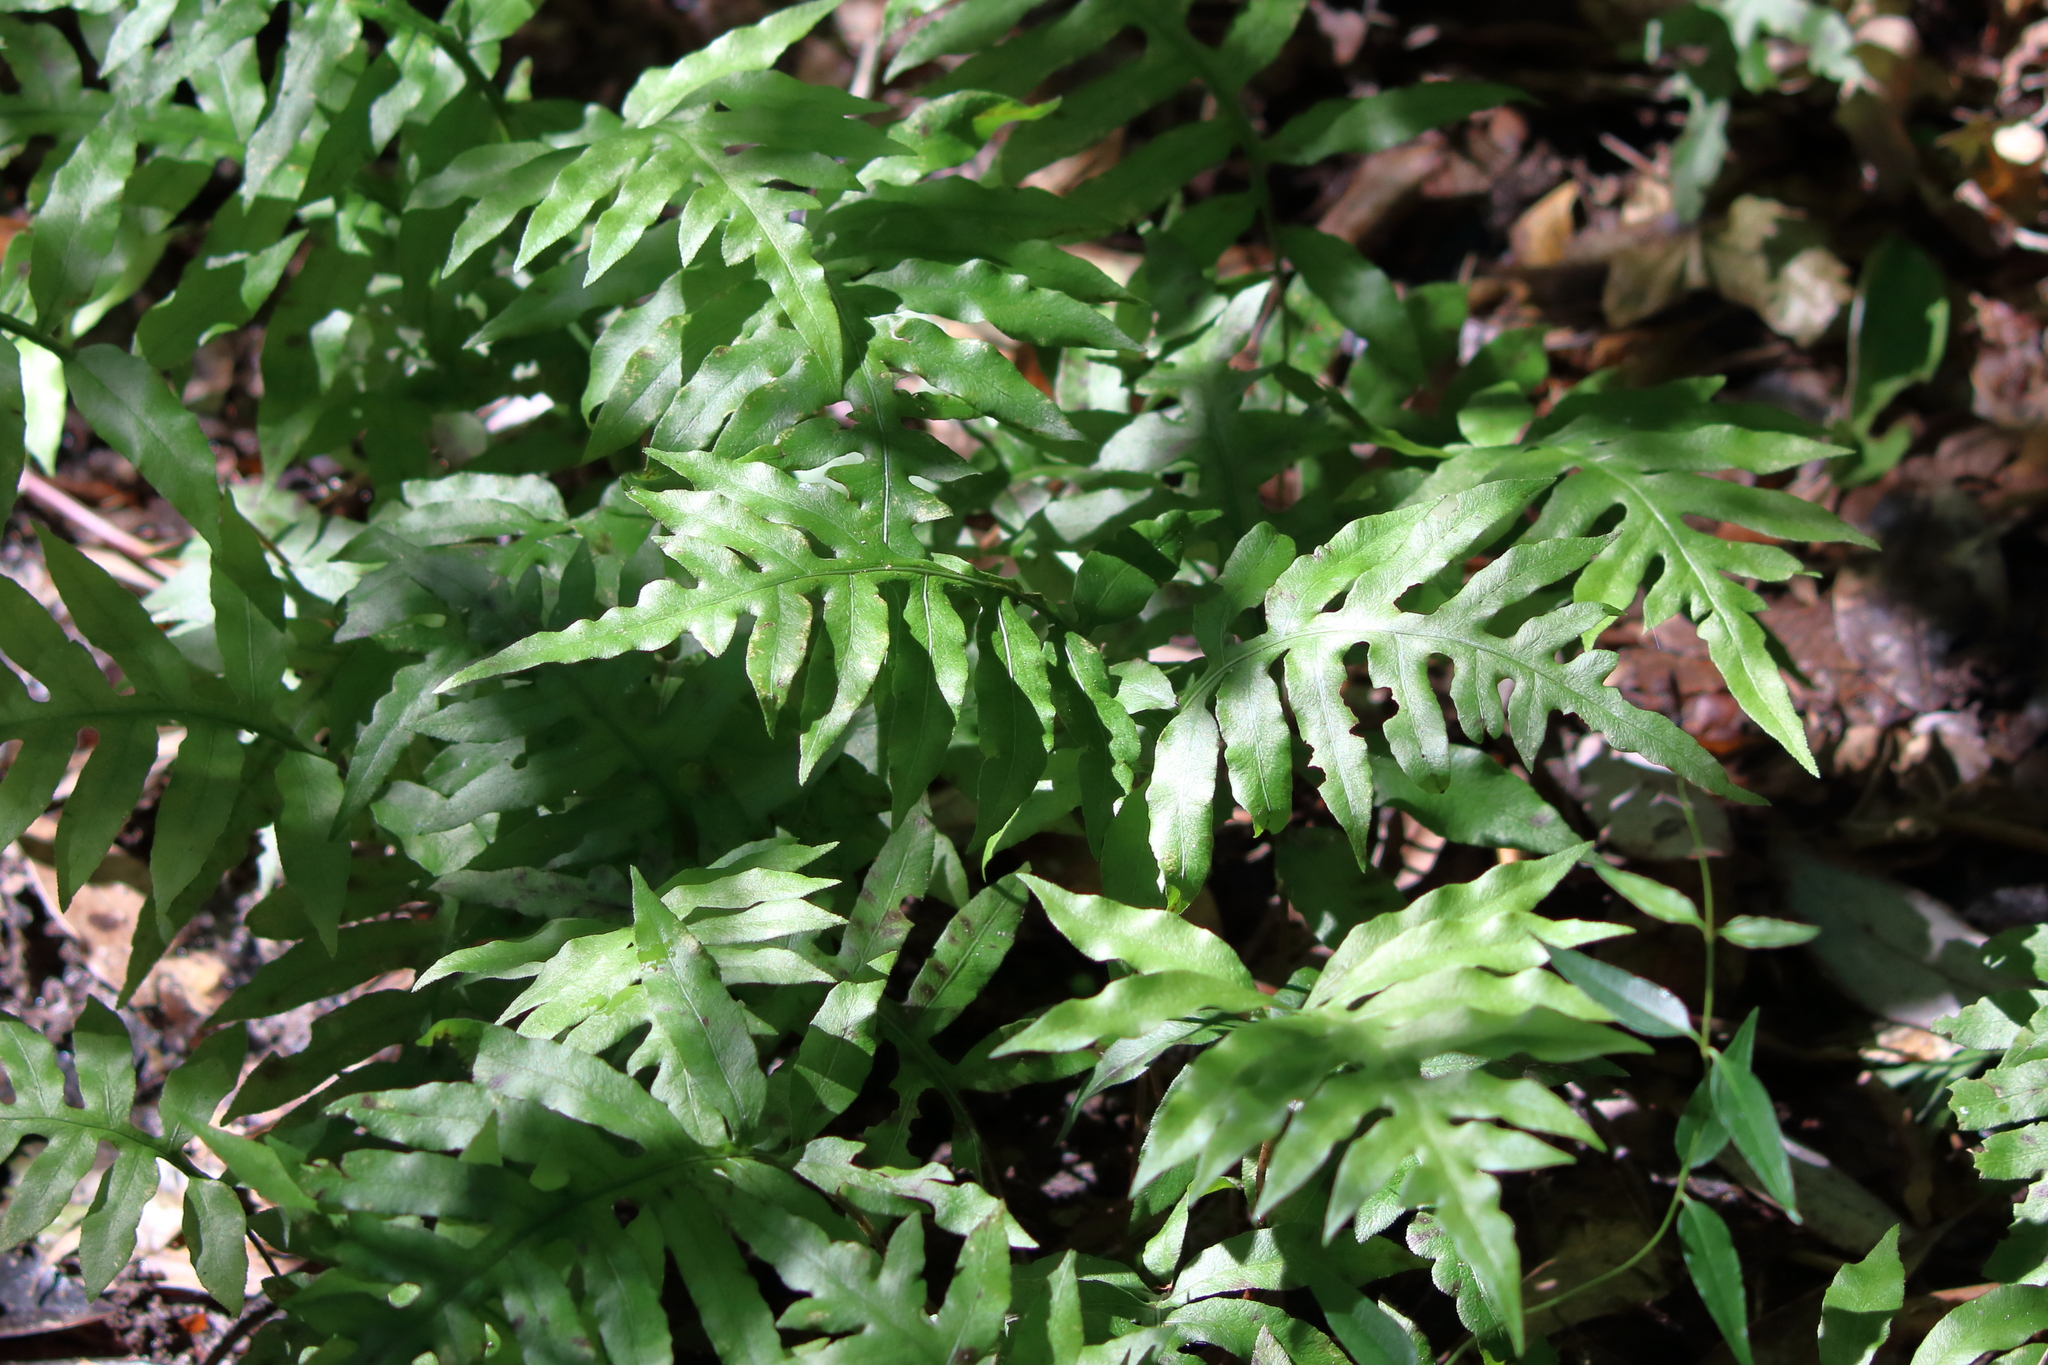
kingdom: Plantae
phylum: Tracheophyta
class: Polypodiopsida
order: Polypodiales
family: Blechnaceae
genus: Lorinseria
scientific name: Lorinseria areolata
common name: Dwarf chain fern
